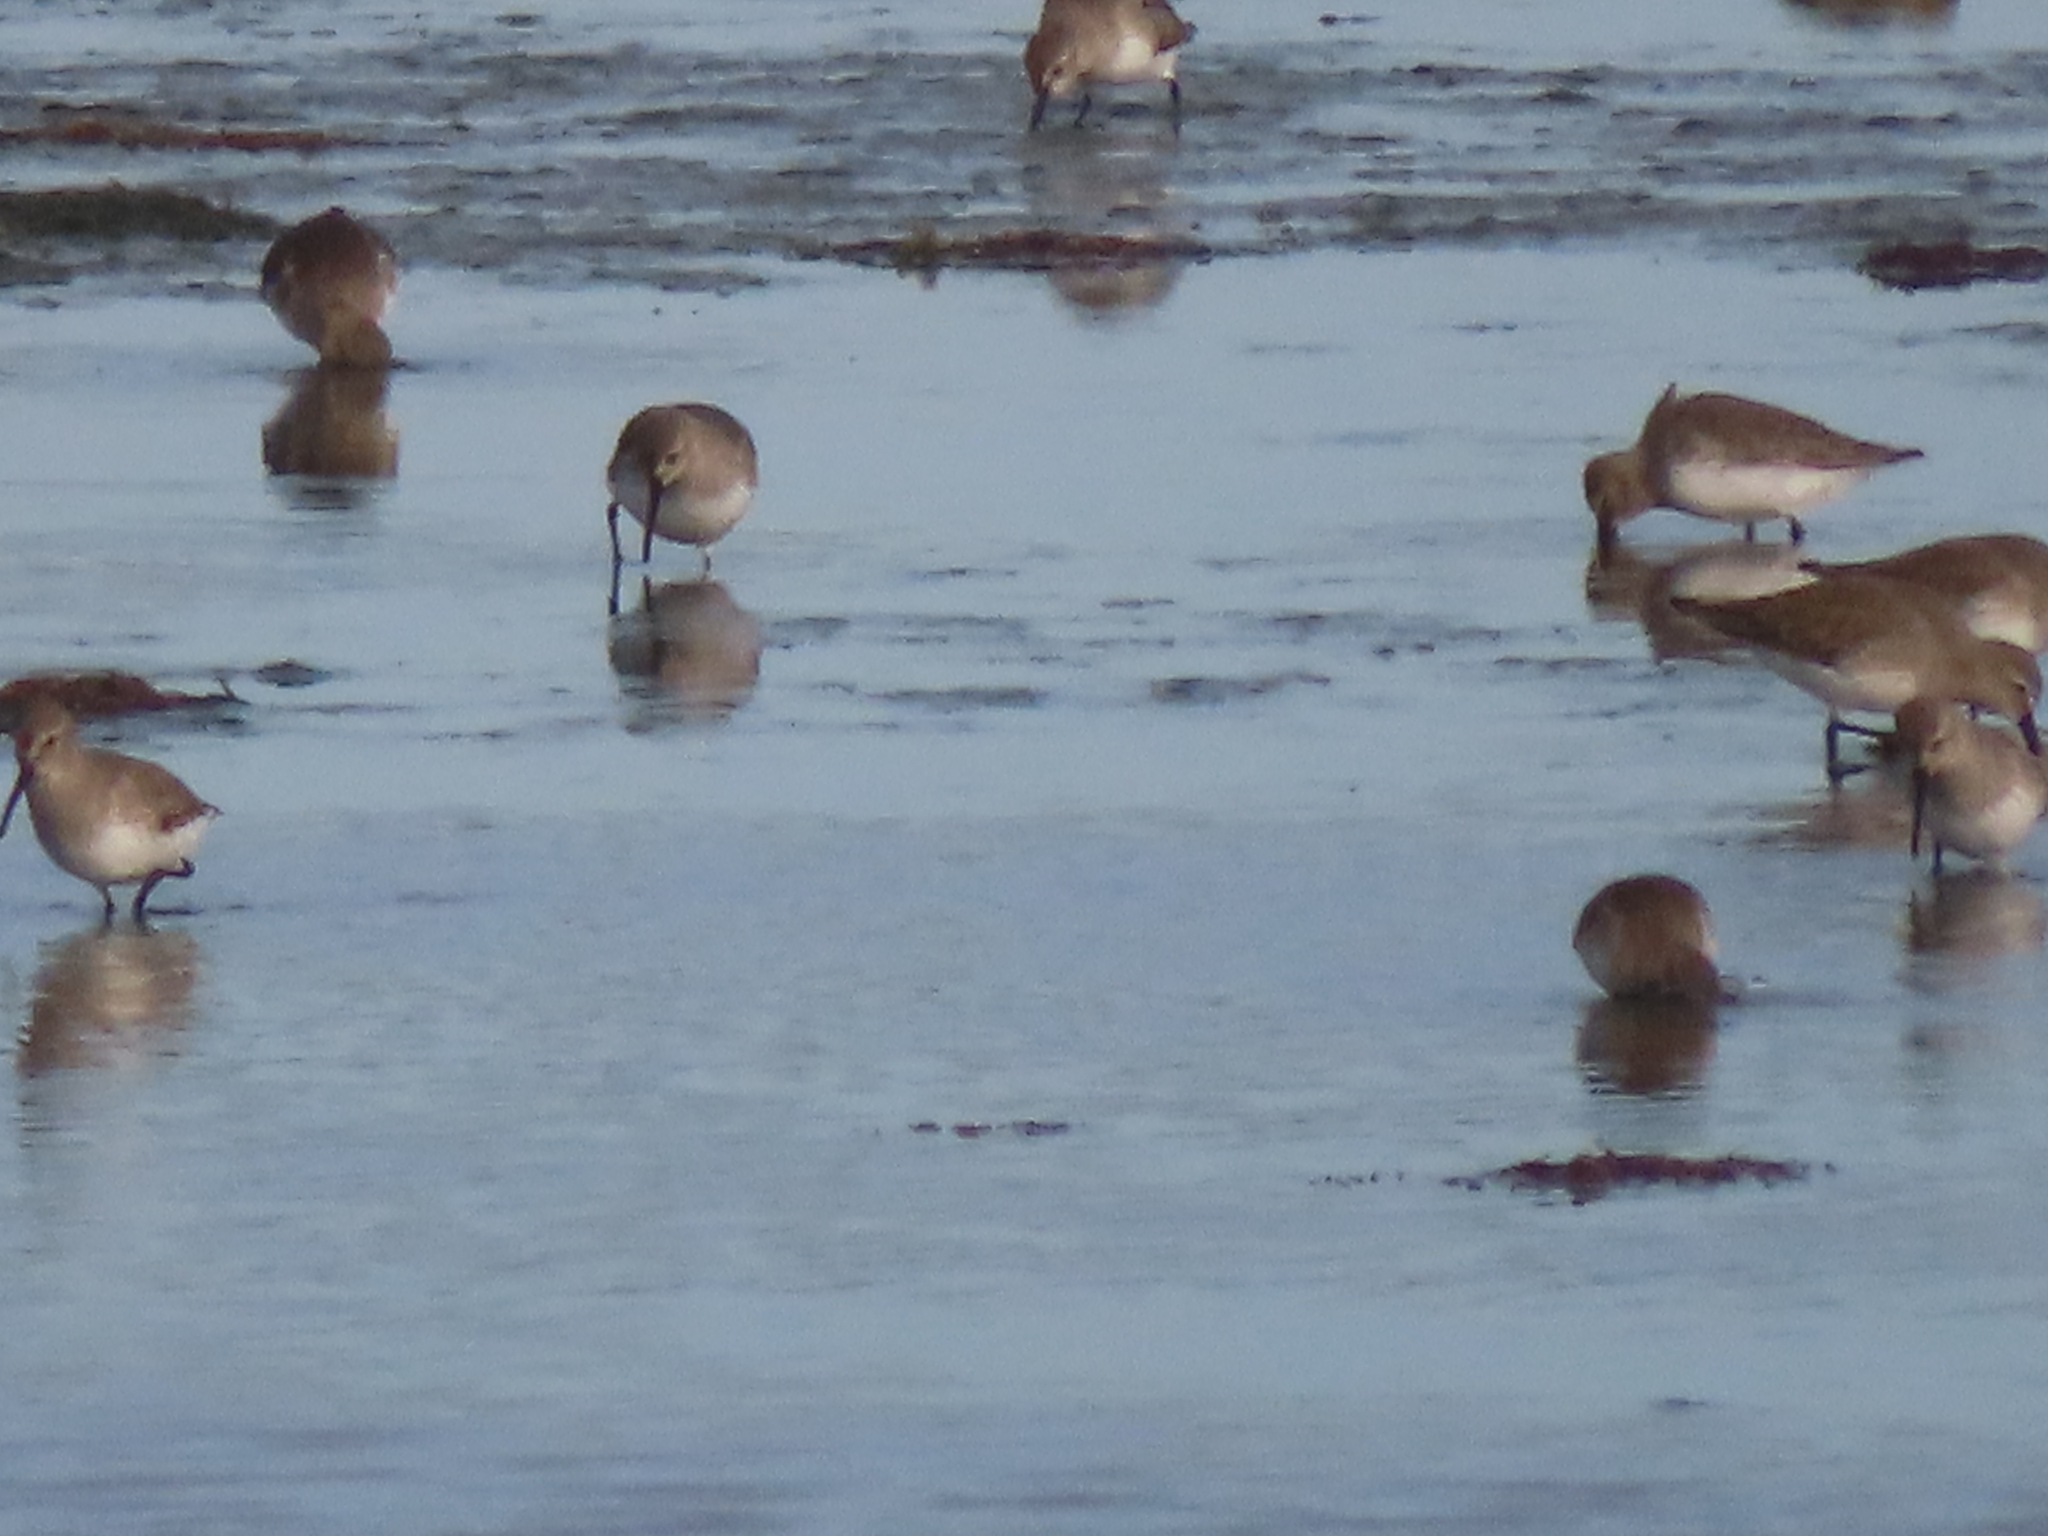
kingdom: Animalia
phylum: Chordata
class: Aves
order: Charadriiformes
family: Scolopacidae
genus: Calidris
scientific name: Calidris alpina
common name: Dunlin
